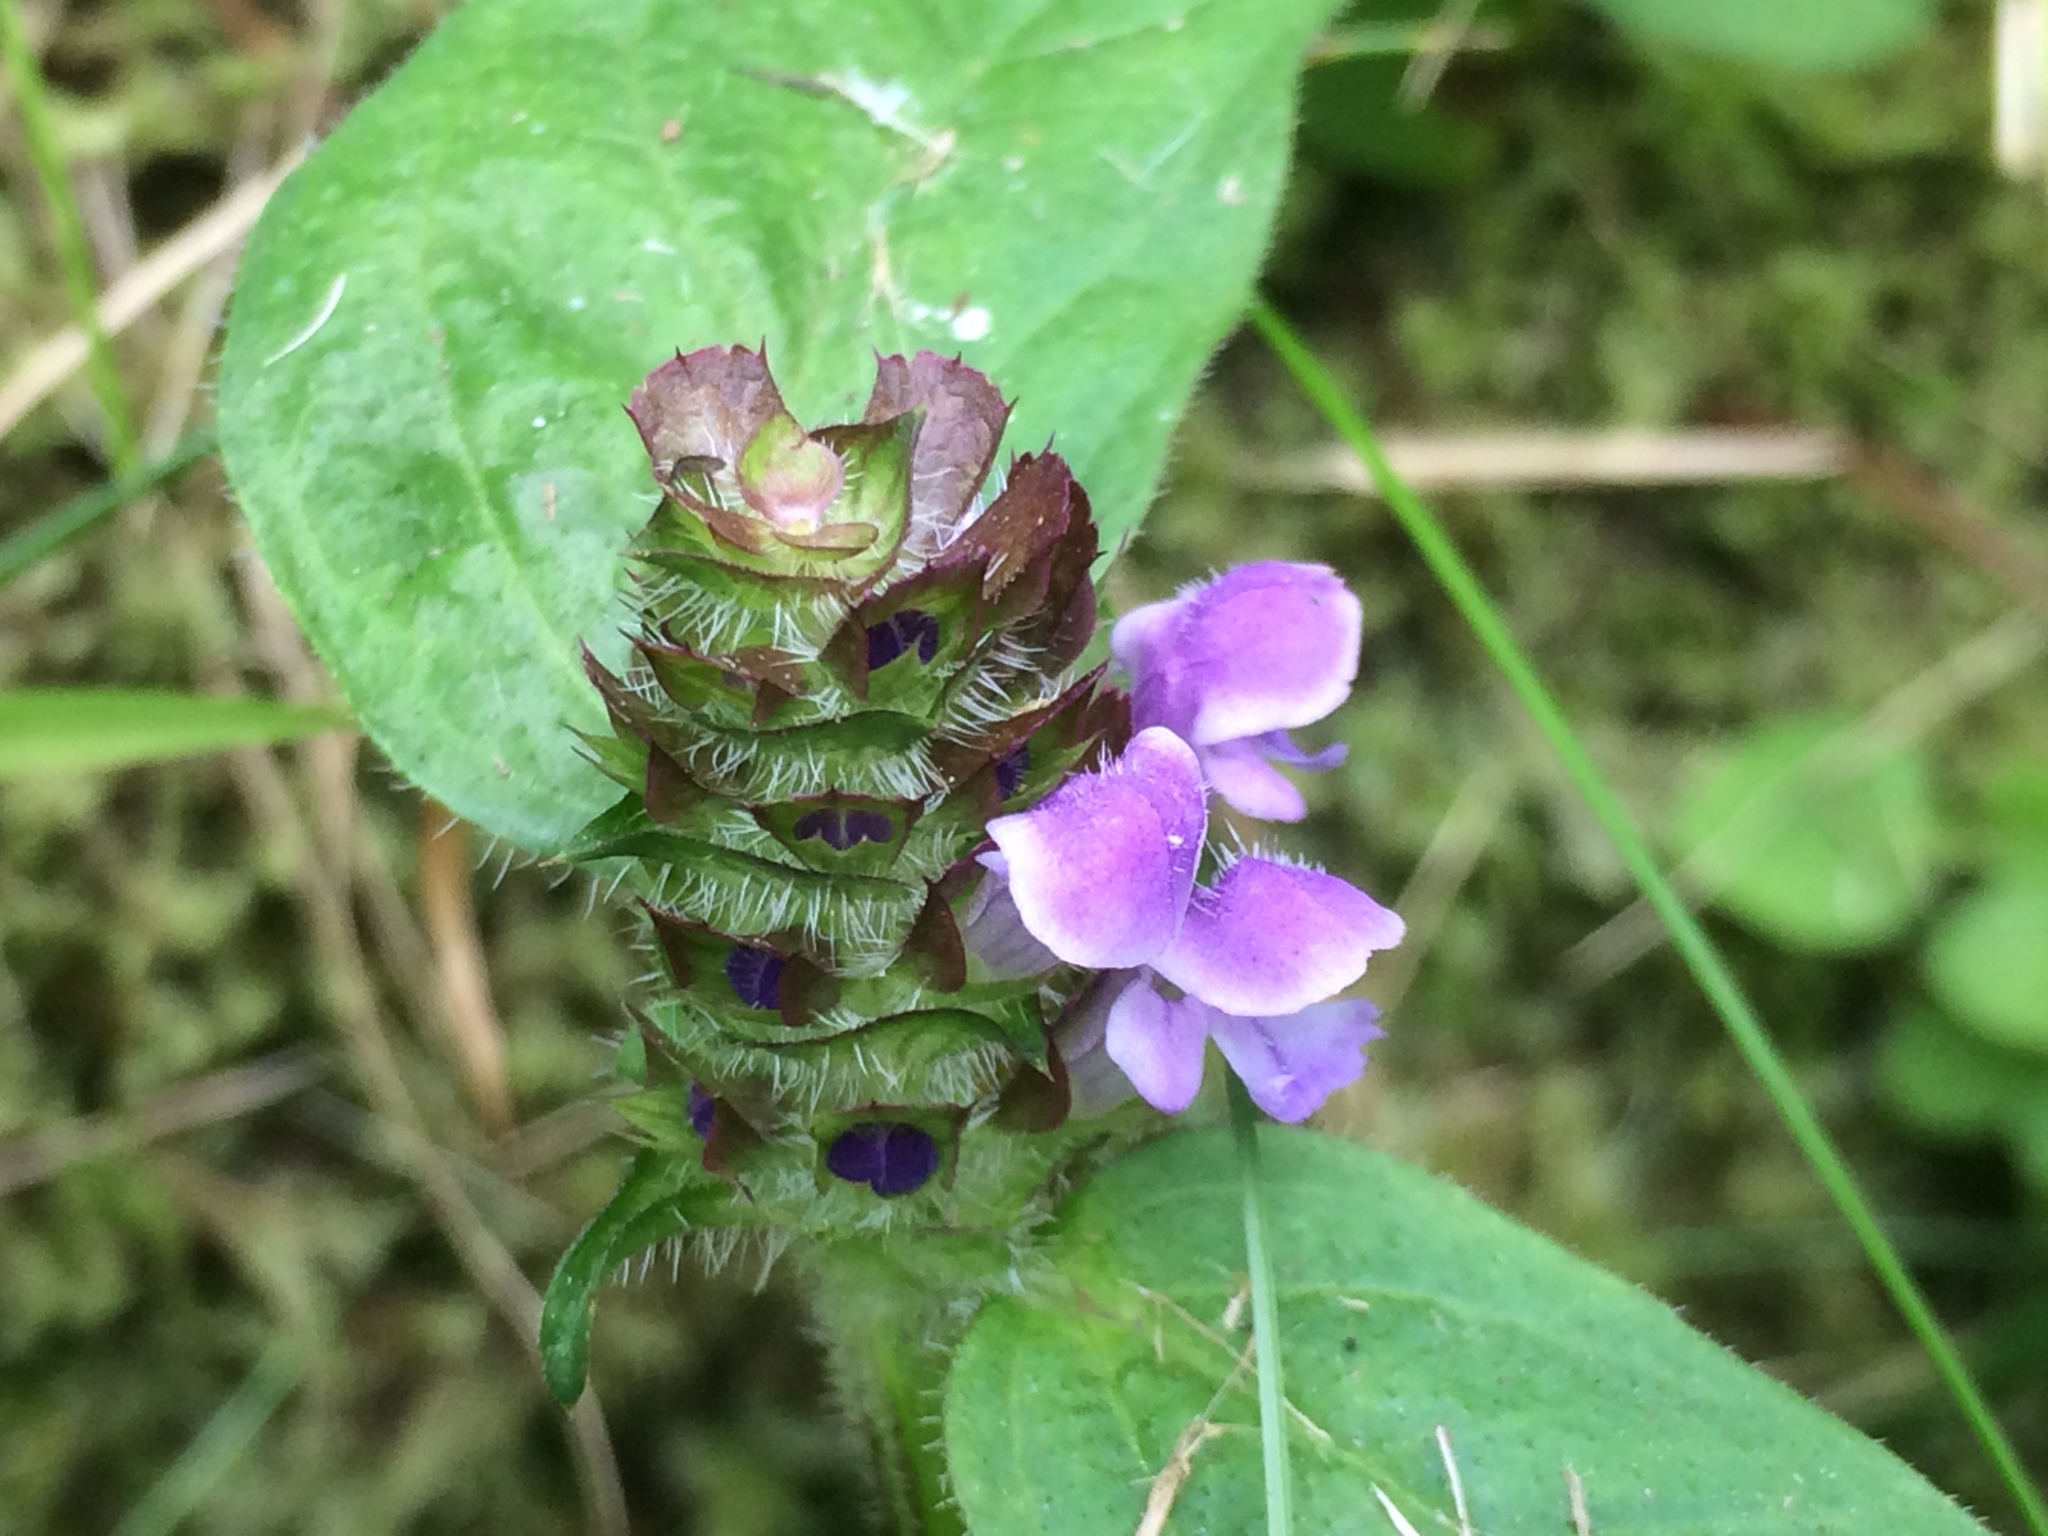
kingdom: Plantae
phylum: Tracheophyta
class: Magnoliopsida
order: Lamiales
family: Lamiaceae
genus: Prunella
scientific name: Prunella vulgaris
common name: Heal-all
